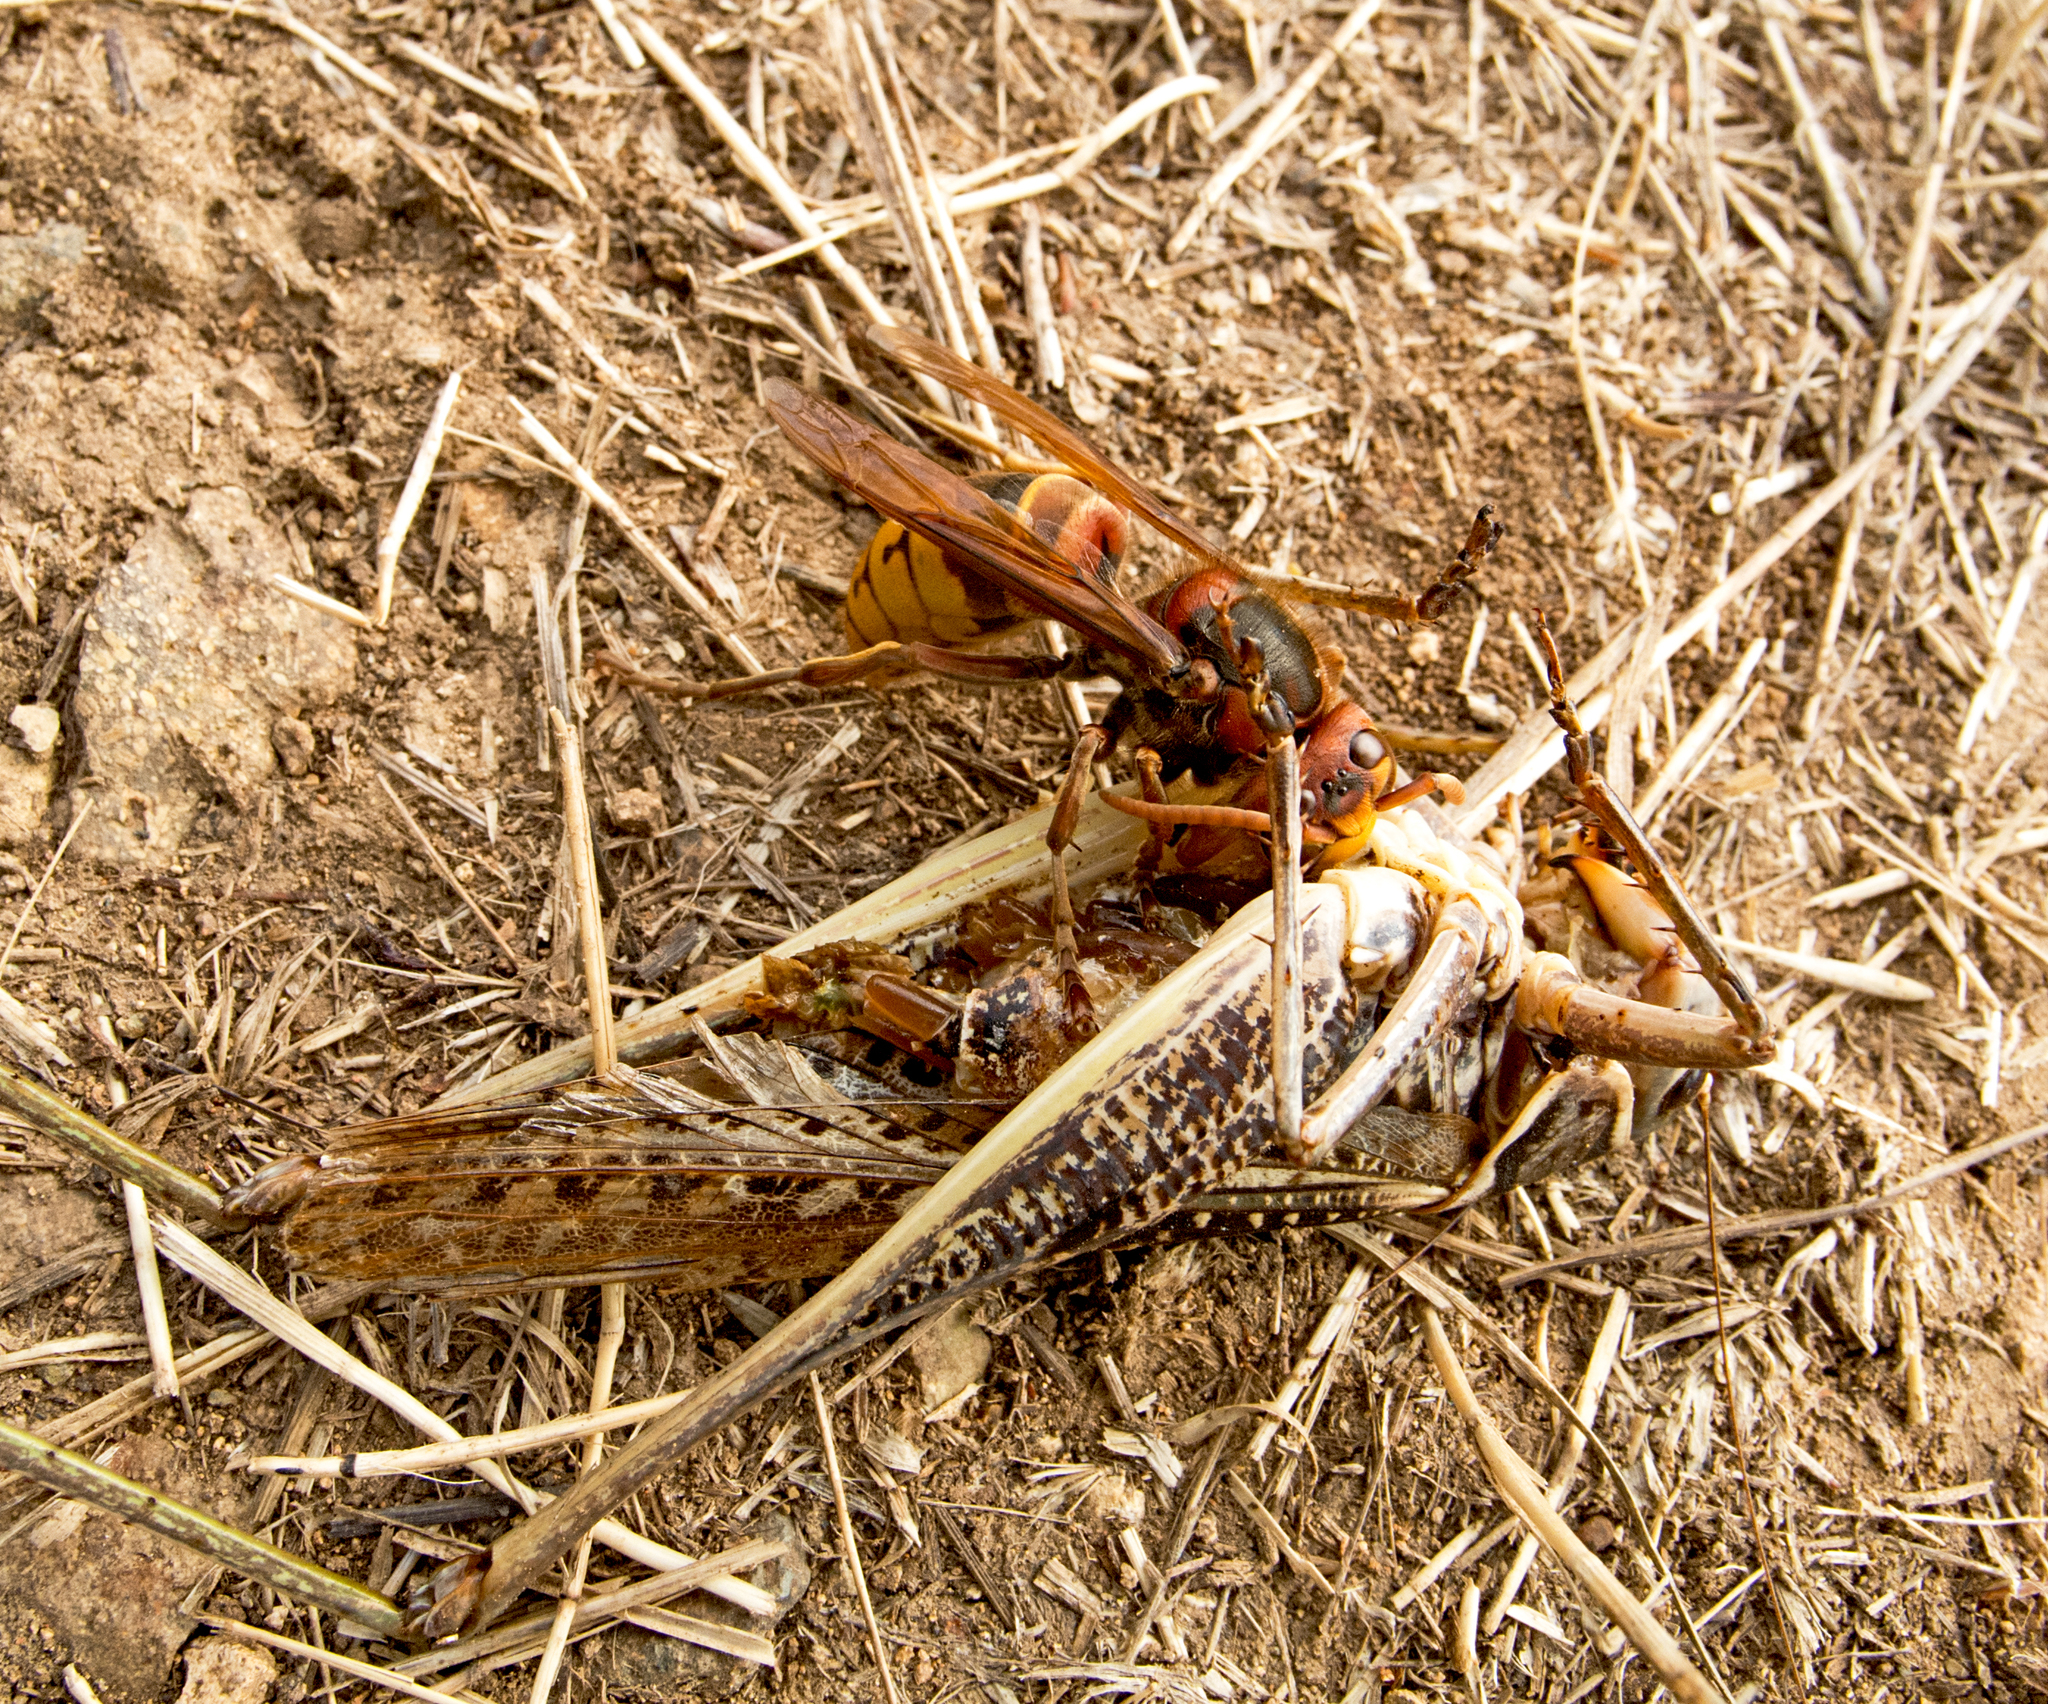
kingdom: Animalia
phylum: Arthropoda
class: Insecta
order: Hymenoptera
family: Vespidae
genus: Vespa
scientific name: Vespa crabro
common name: Hornet
